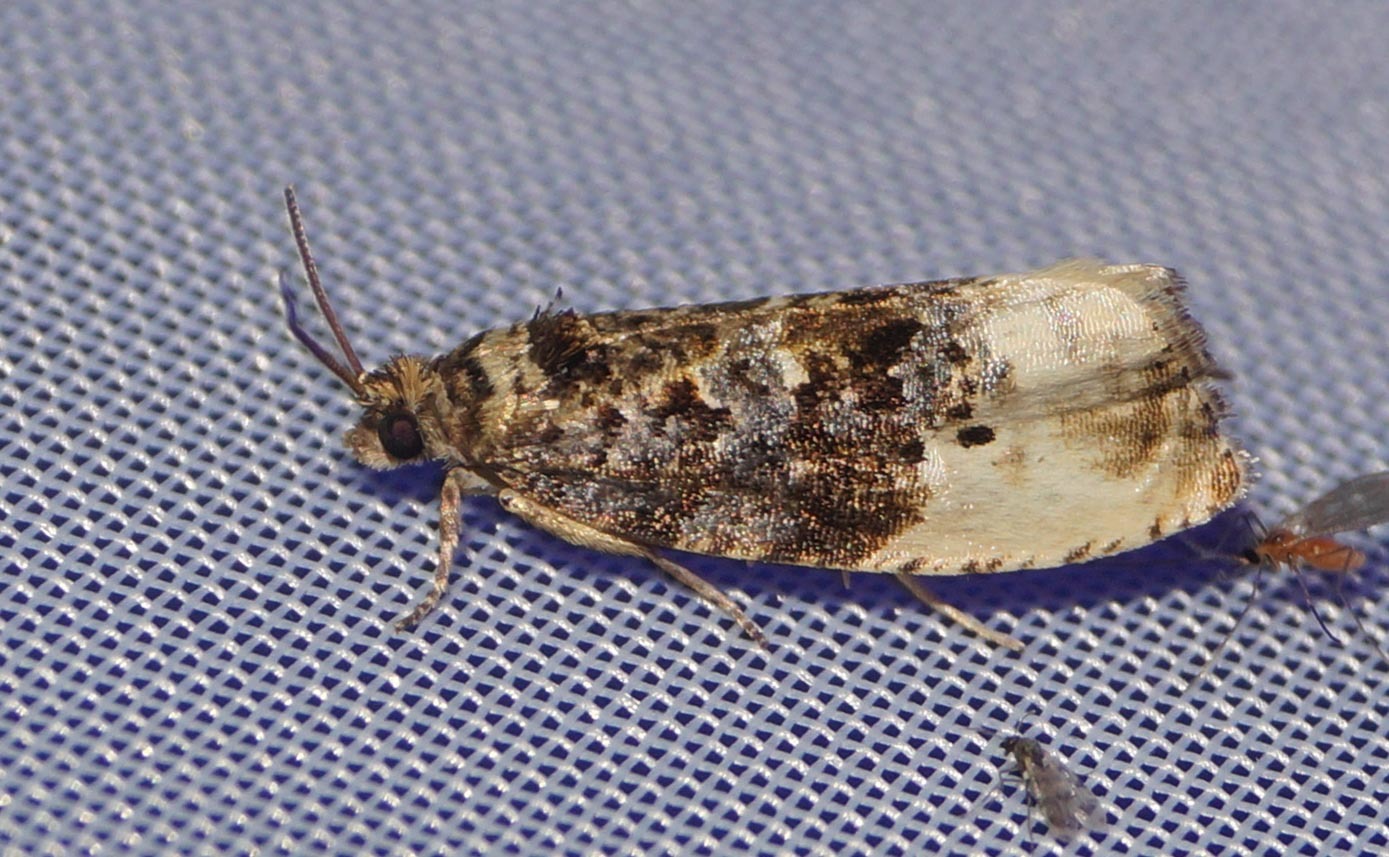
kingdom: Animalia
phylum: Arthropoda
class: Insecta
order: Lepidoptera
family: Tortricidae
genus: Hedya
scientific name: Hedya nubiferana
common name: Marbled orchard tortrix
